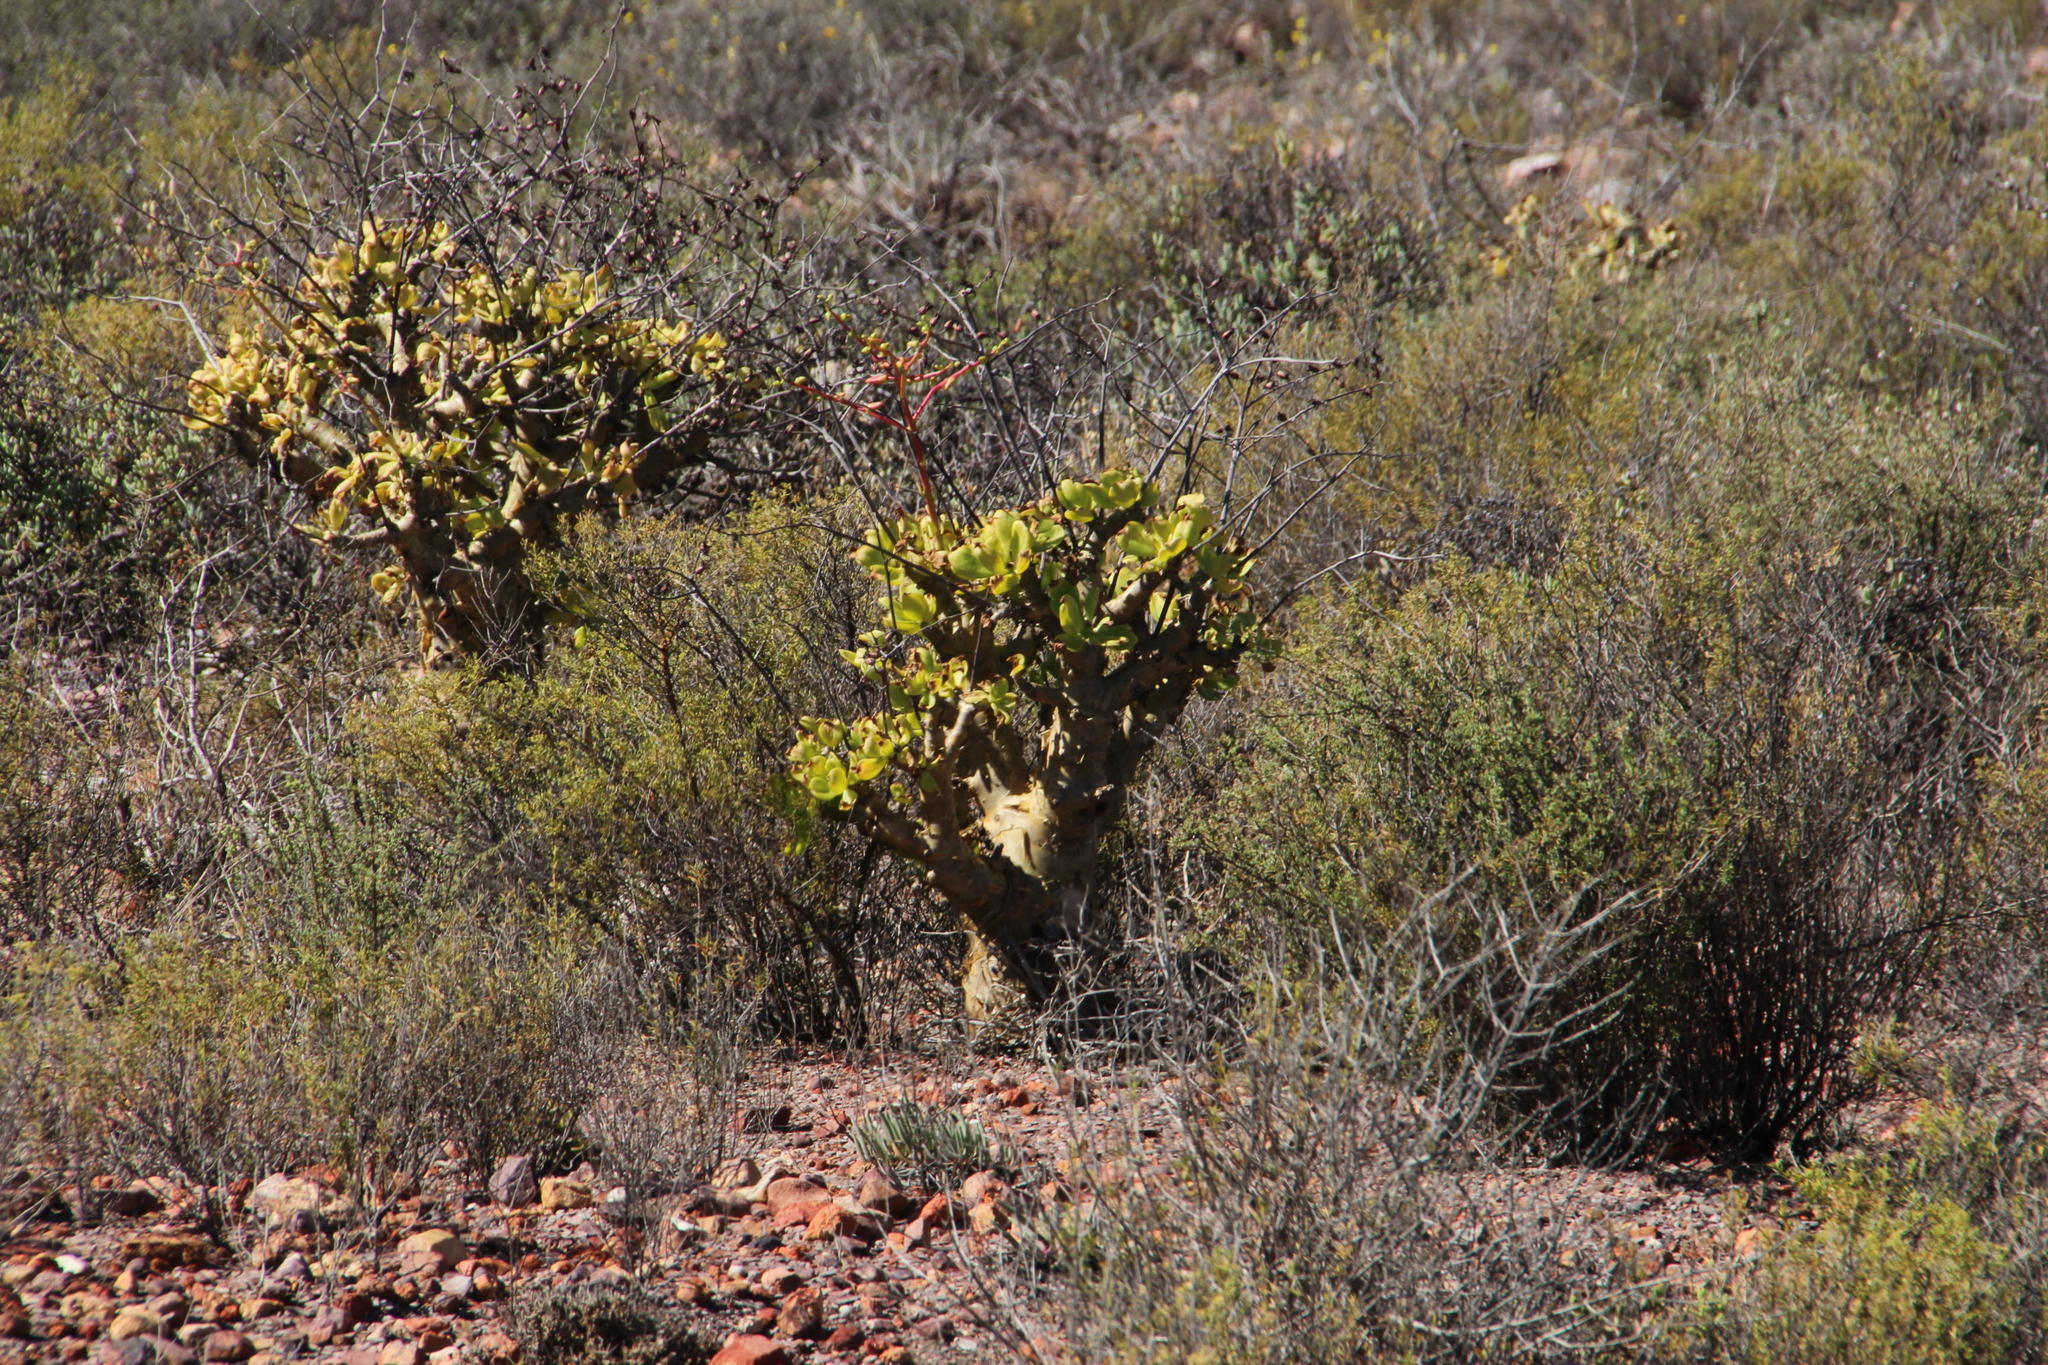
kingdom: Plantae
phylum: Tracheophyta
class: Magnoliopsida
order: Saxifragales
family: Crassulaceae
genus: Tylecodon
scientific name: Tylecodon paniculatus
